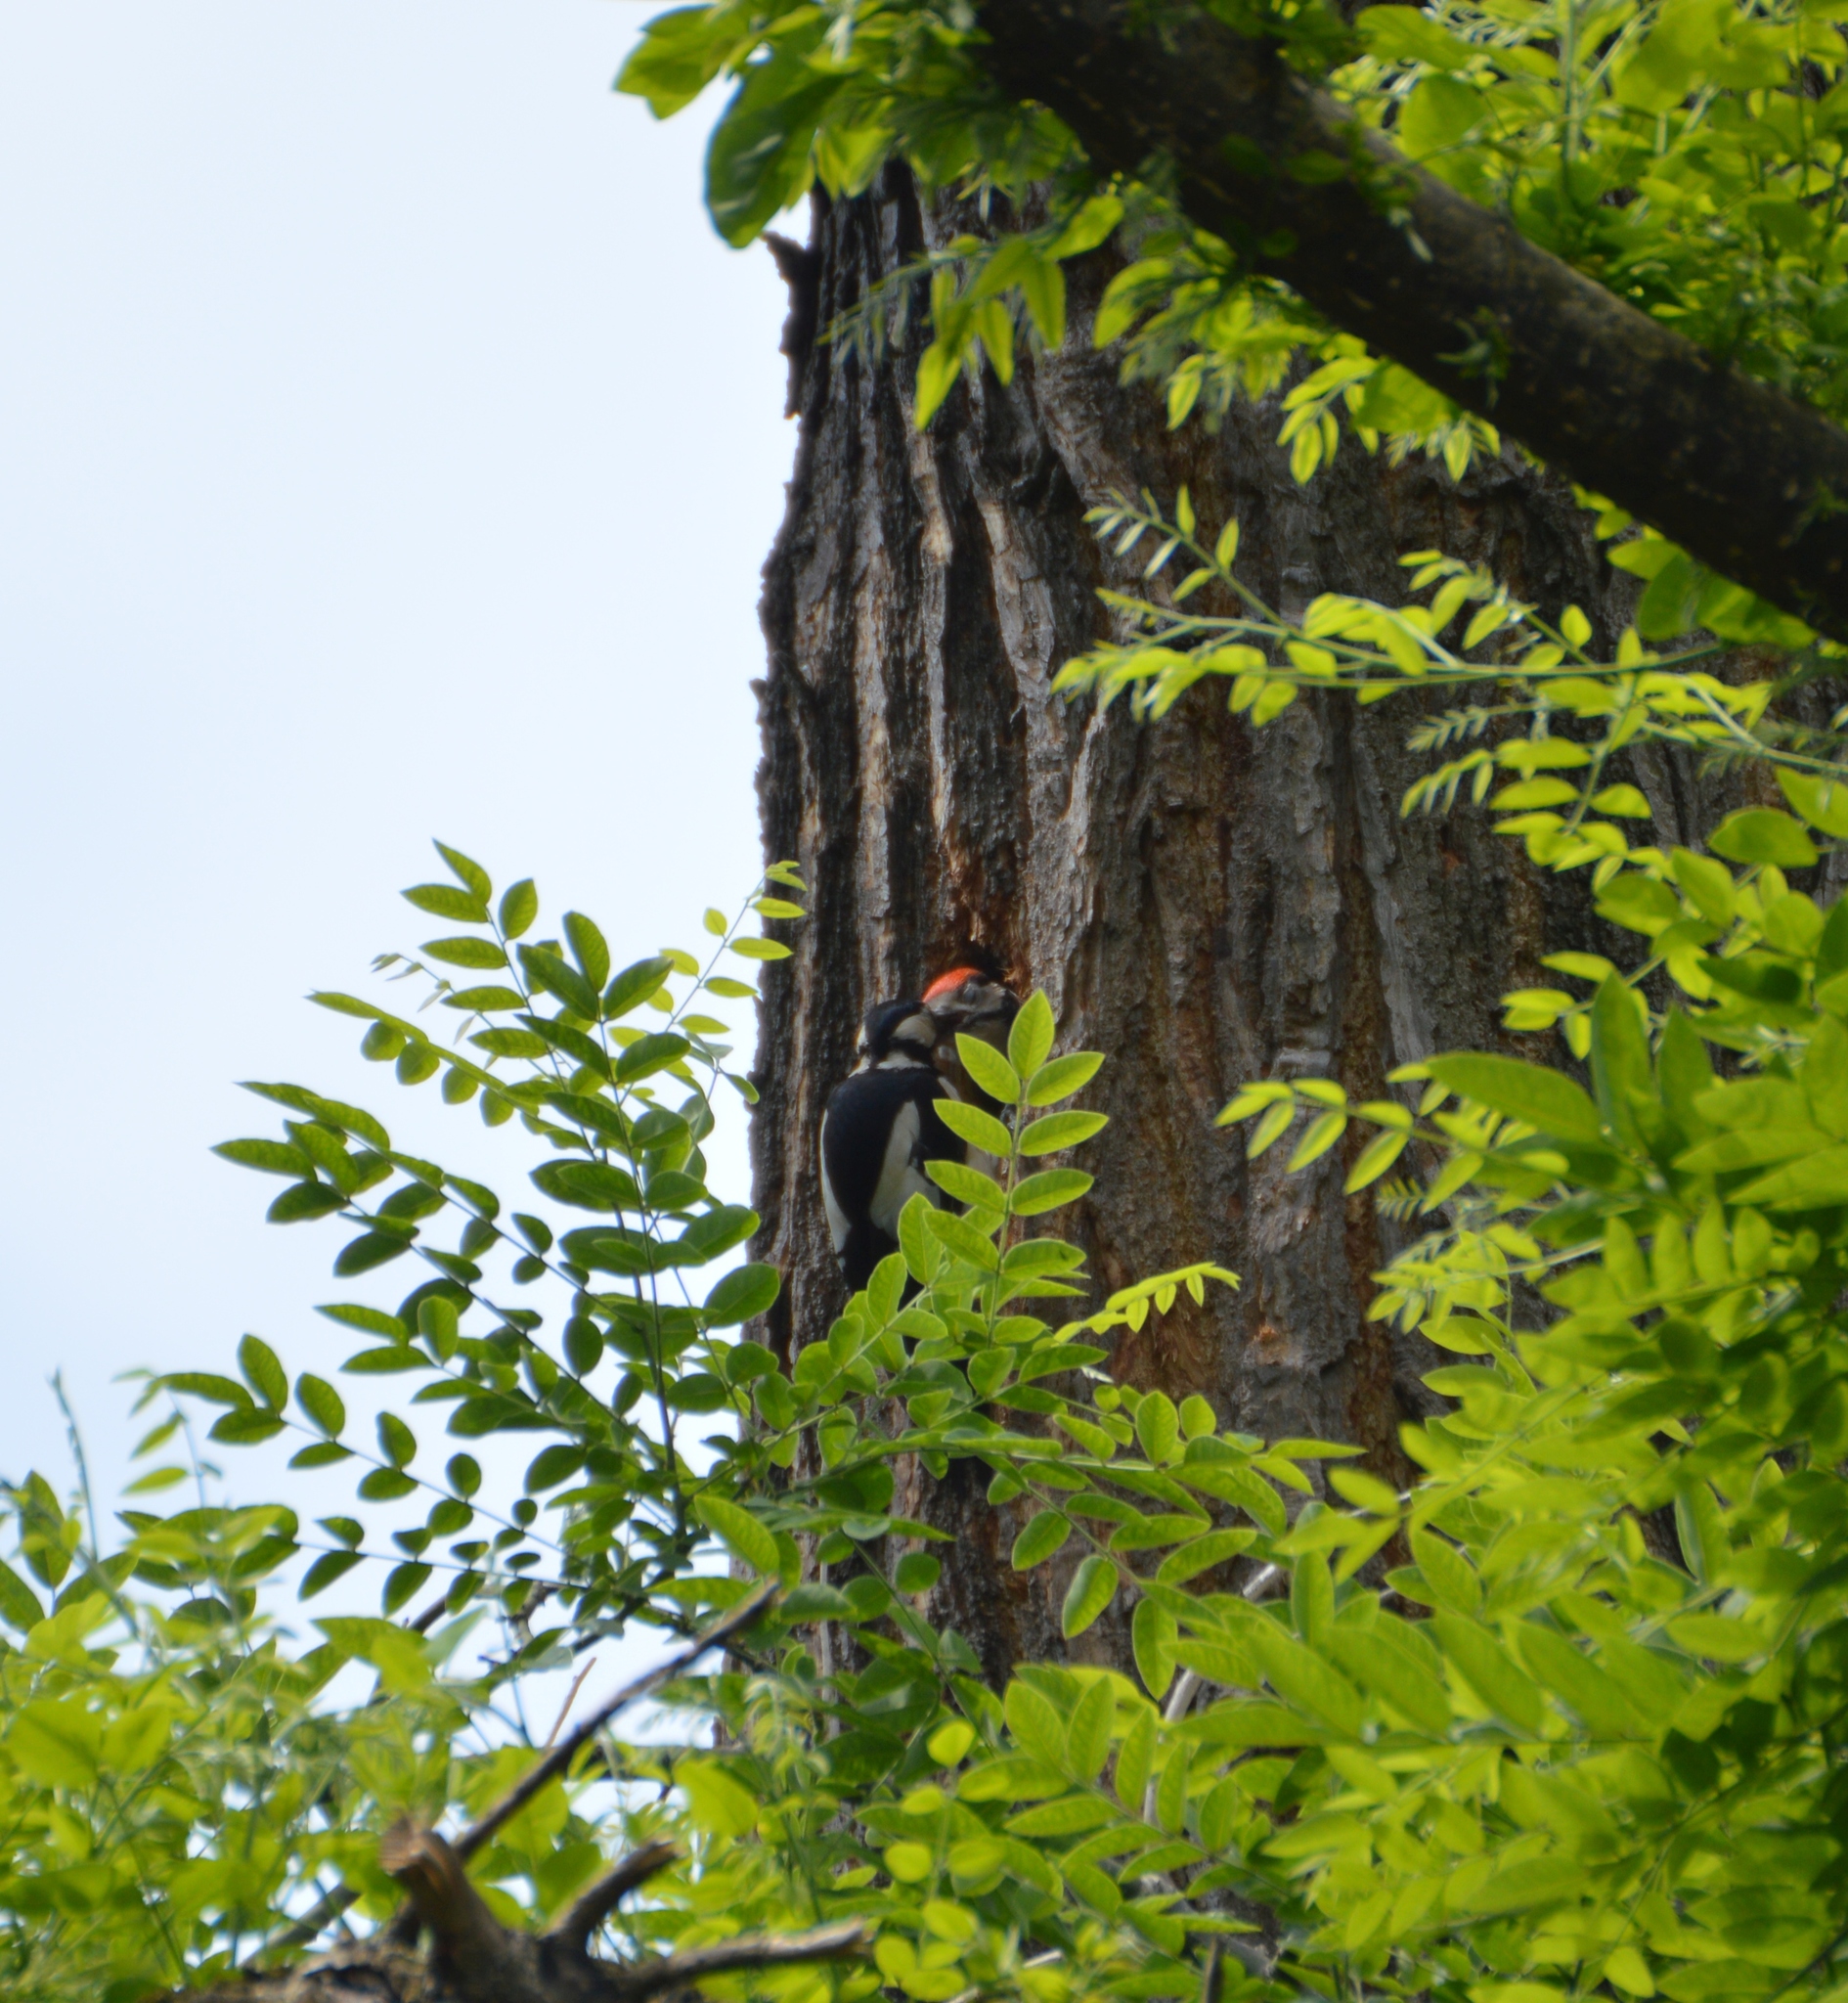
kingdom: Animalia
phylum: Chordata
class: Aves
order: Piciformes
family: Picidae
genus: Dendrocopos
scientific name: Dendrocopos major
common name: Great spotted woodpecker
